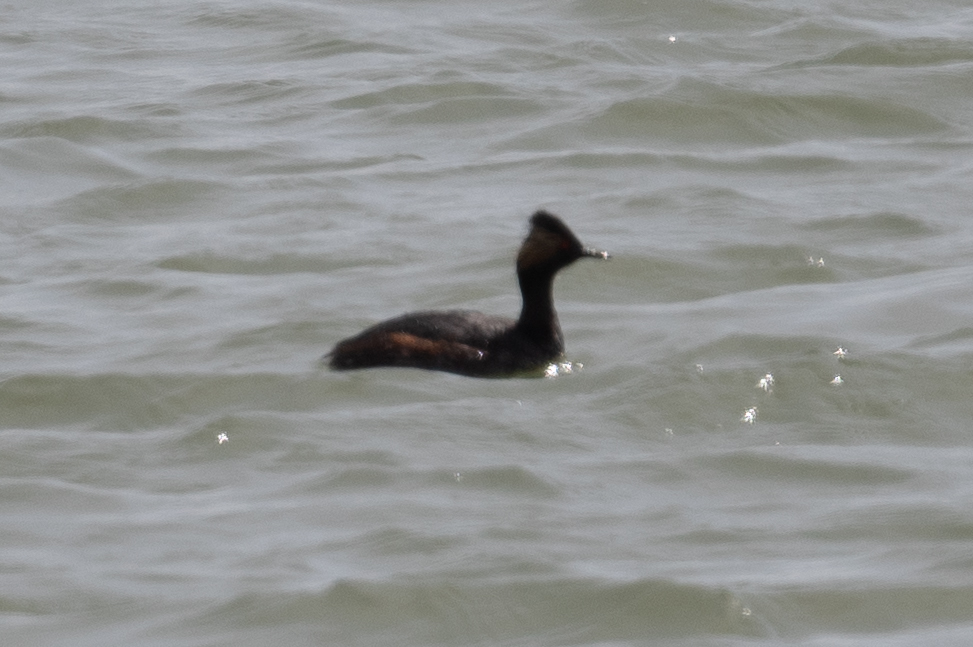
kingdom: Animalia
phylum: Chordata
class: Aves
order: Podicipediformes
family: Podicipedidae
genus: Podiceps
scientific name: Podiceps nigricollis
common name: Black-necked grebe
